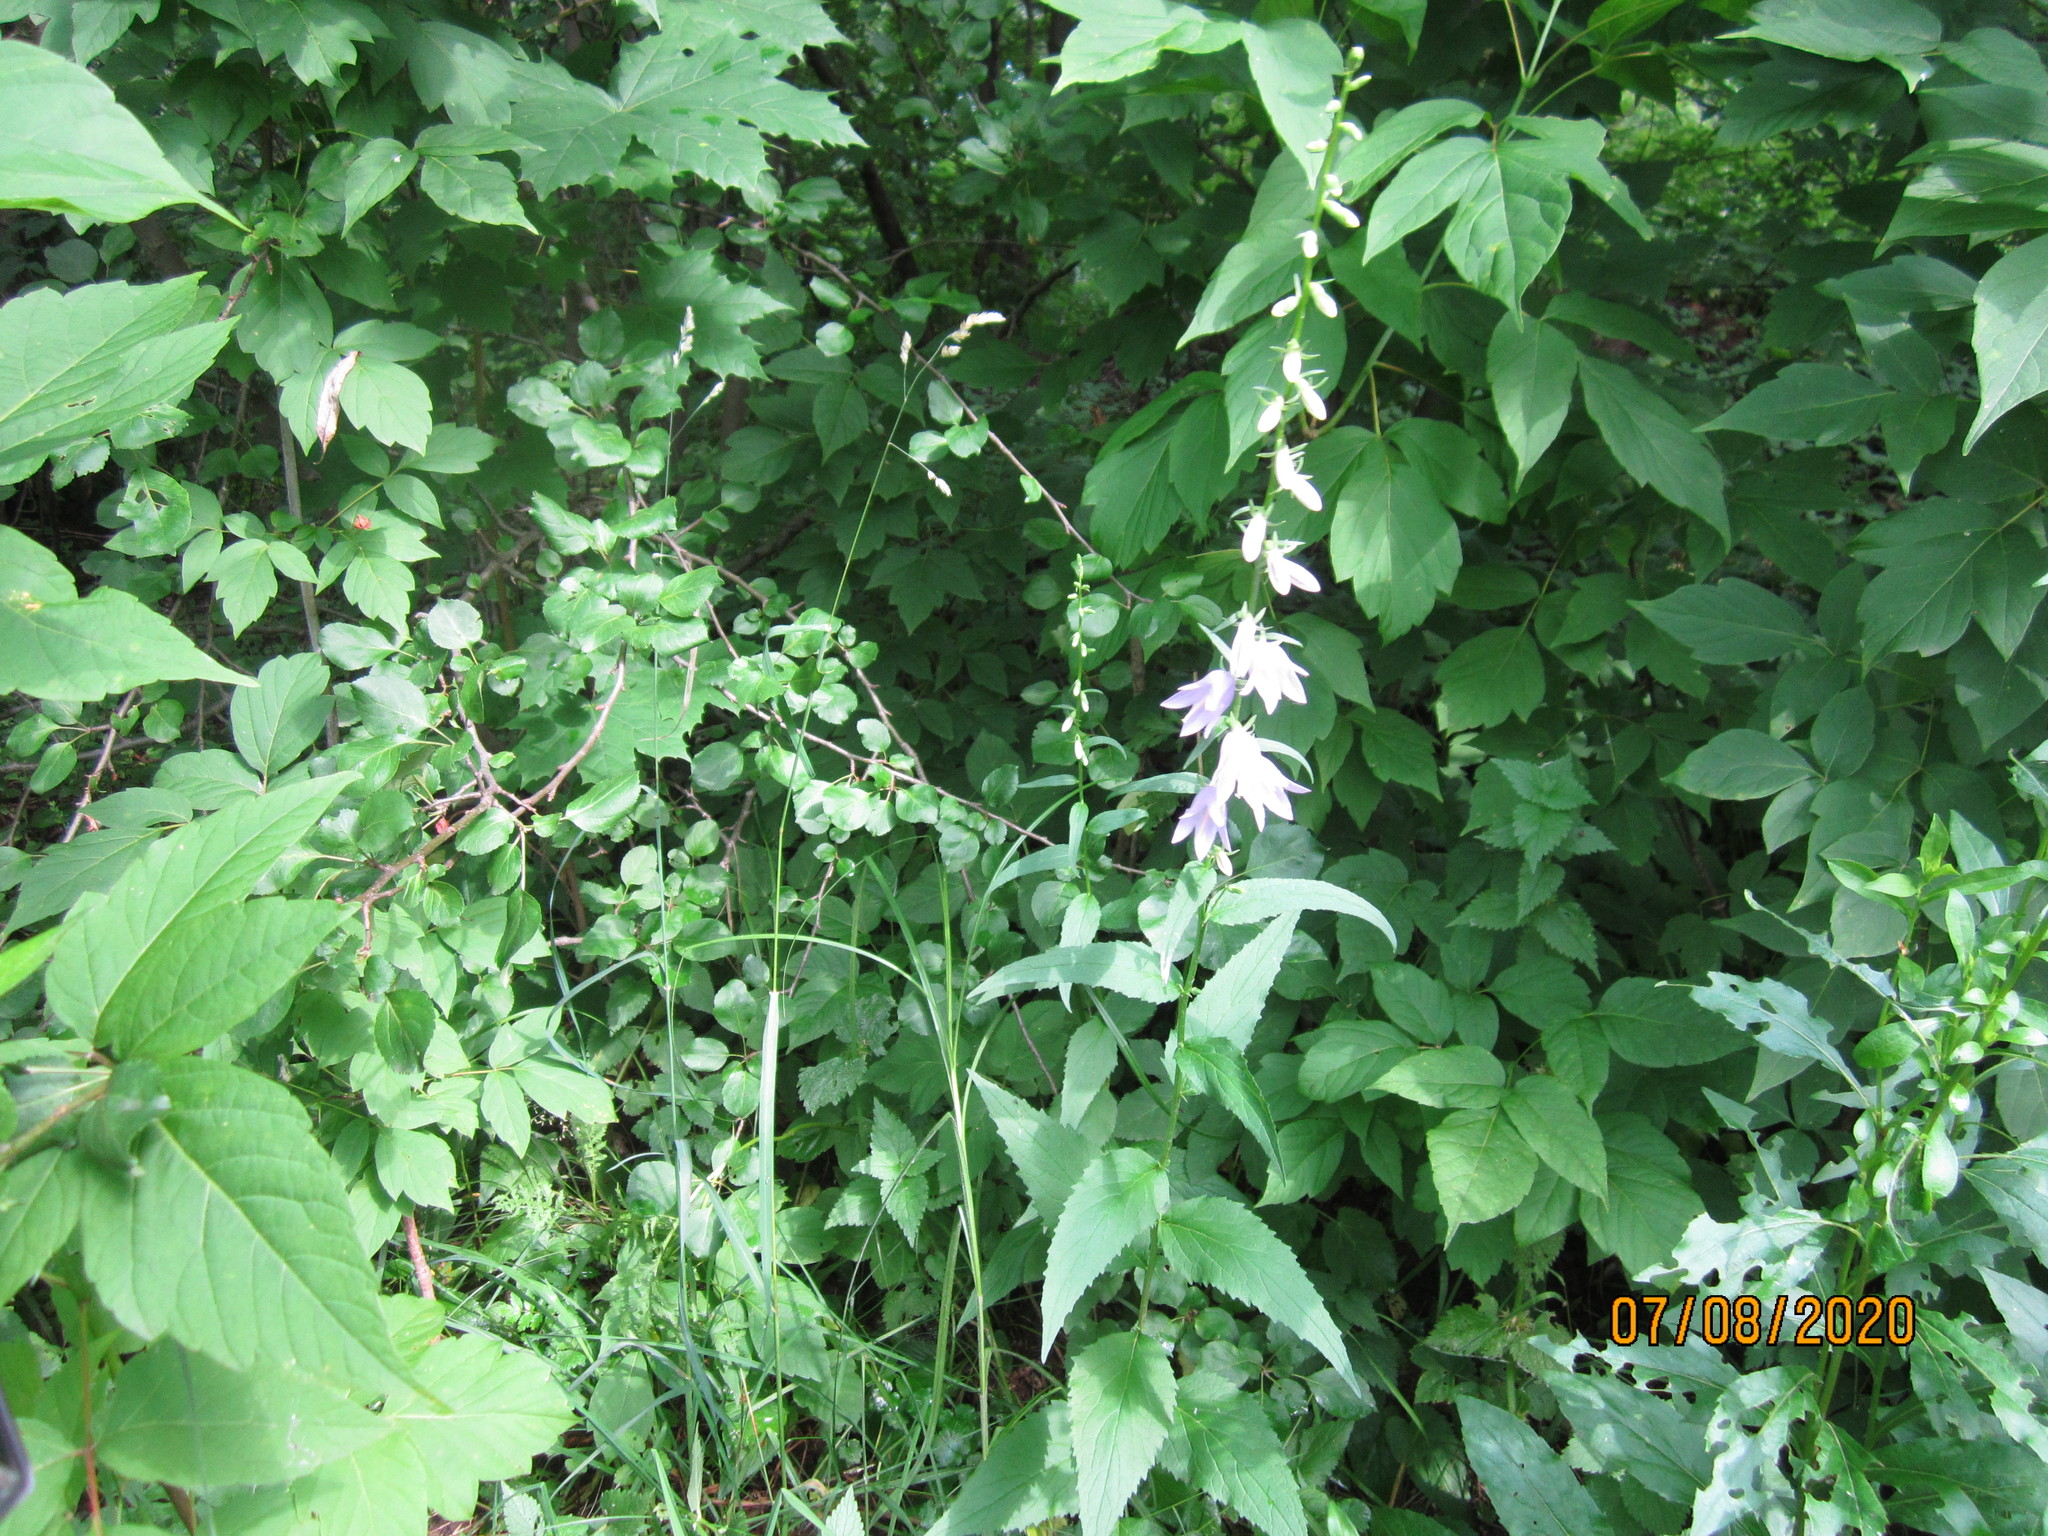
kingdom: Plantae
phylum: Tracheophyta
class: Magnoliopsida
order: Asterales
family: Campanulaceae
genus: Campanula
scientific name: Campanula rapunculoides
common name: Creeping bellflower
